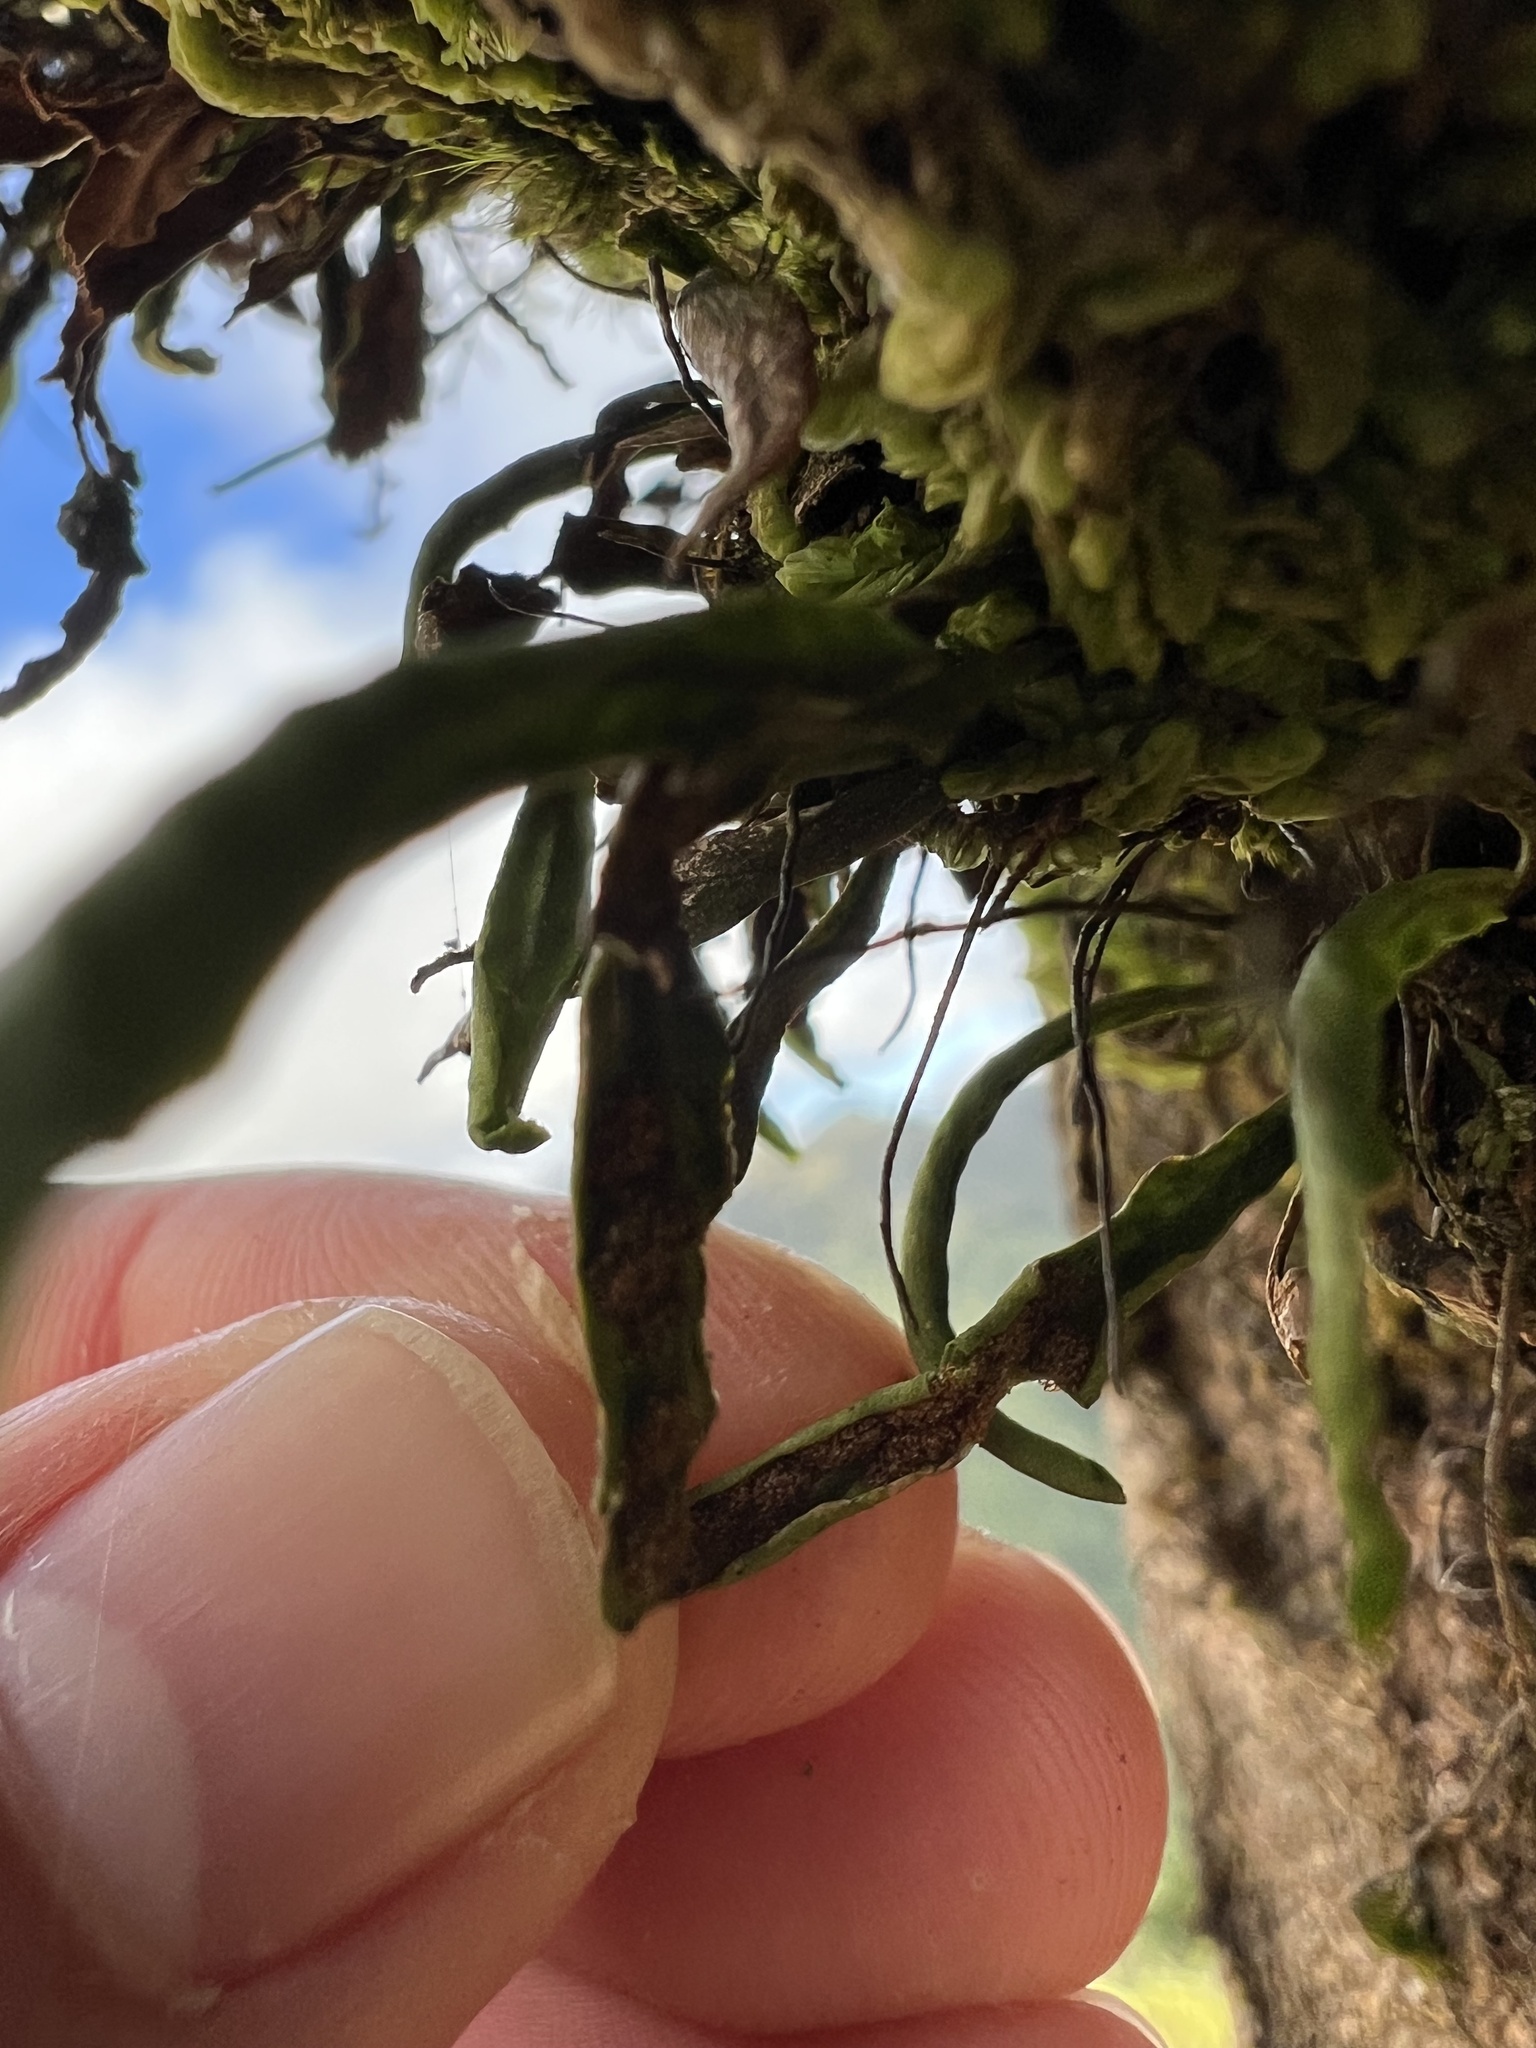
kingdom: Plantae
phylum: Tracheophyta
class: Polypodiopsida
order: Polypodiales
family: Polypodiaceae
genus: Notogrammitis
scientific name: Notogrammitis angustifolia
